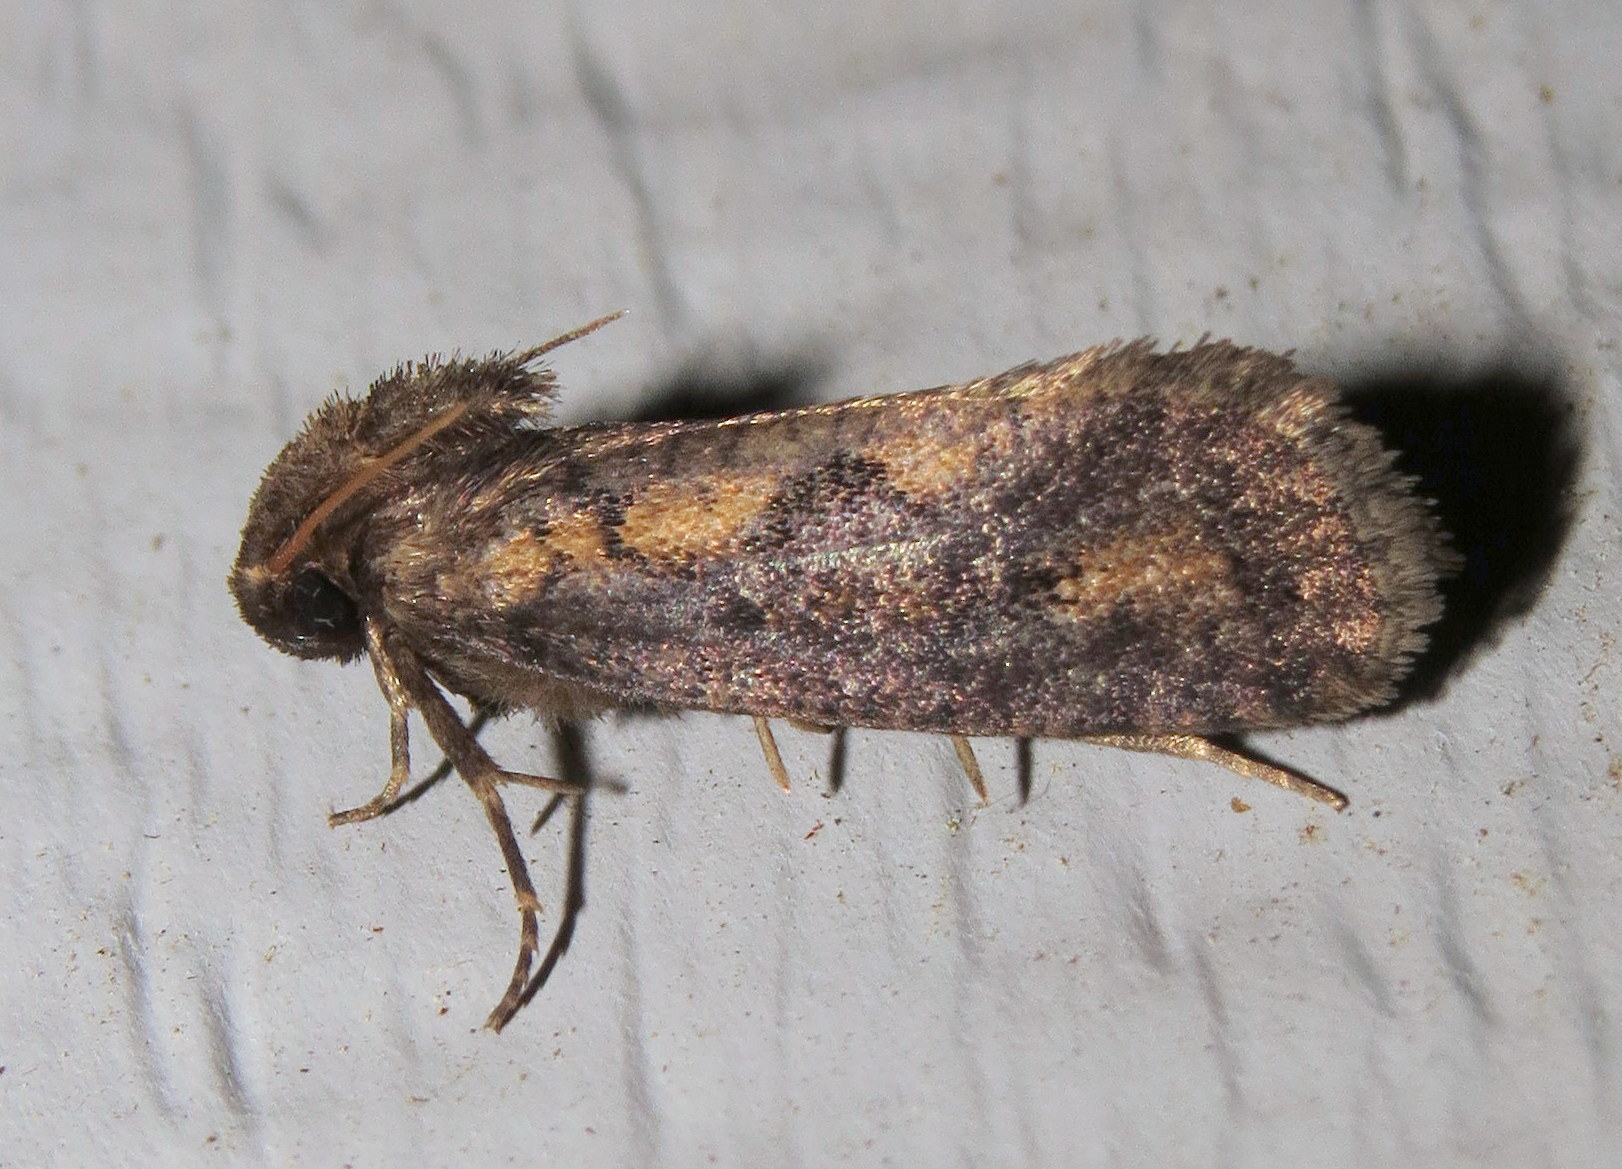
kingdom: Animalia
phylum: Arthropoda
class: Insecta
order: Lepidoptera
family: Tineidae
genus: Acrolophus
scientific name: Acrolophus popeanella
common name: Clemens' grass tubeworm moth
